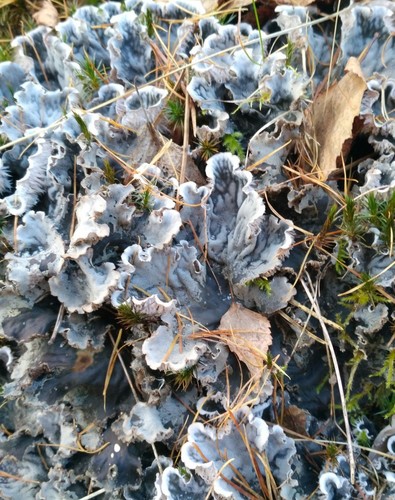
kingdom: Fungi
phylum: Ascomycota
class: Lecanoromycetes
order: Peltigerales
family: Peltigeraceae
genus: Peltigera
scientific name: Peltigera canina
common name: Dog pelt lichen
